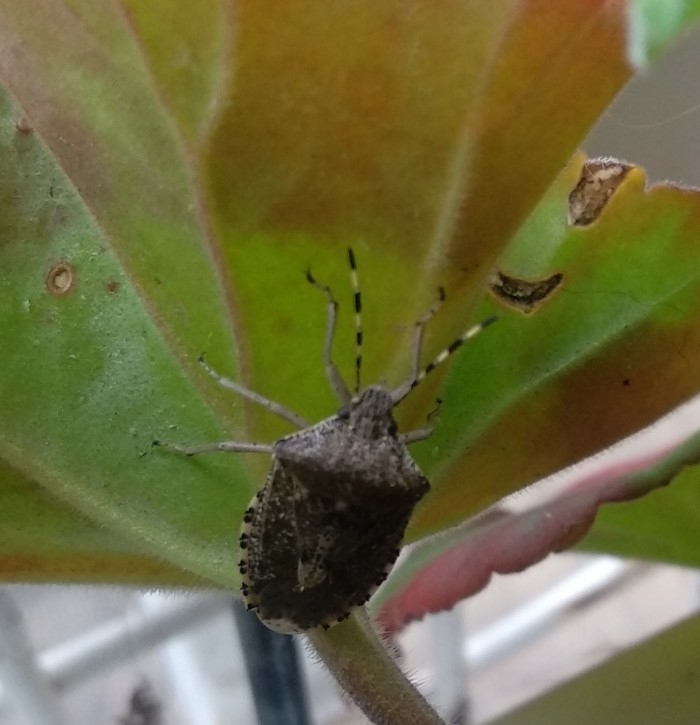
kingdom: Animalia
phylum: Arthropoda
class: Insecta
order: Hemiptera
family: Pentatomidae
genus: Rhaphigaster
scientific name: Rhaphigaster nebulosa
